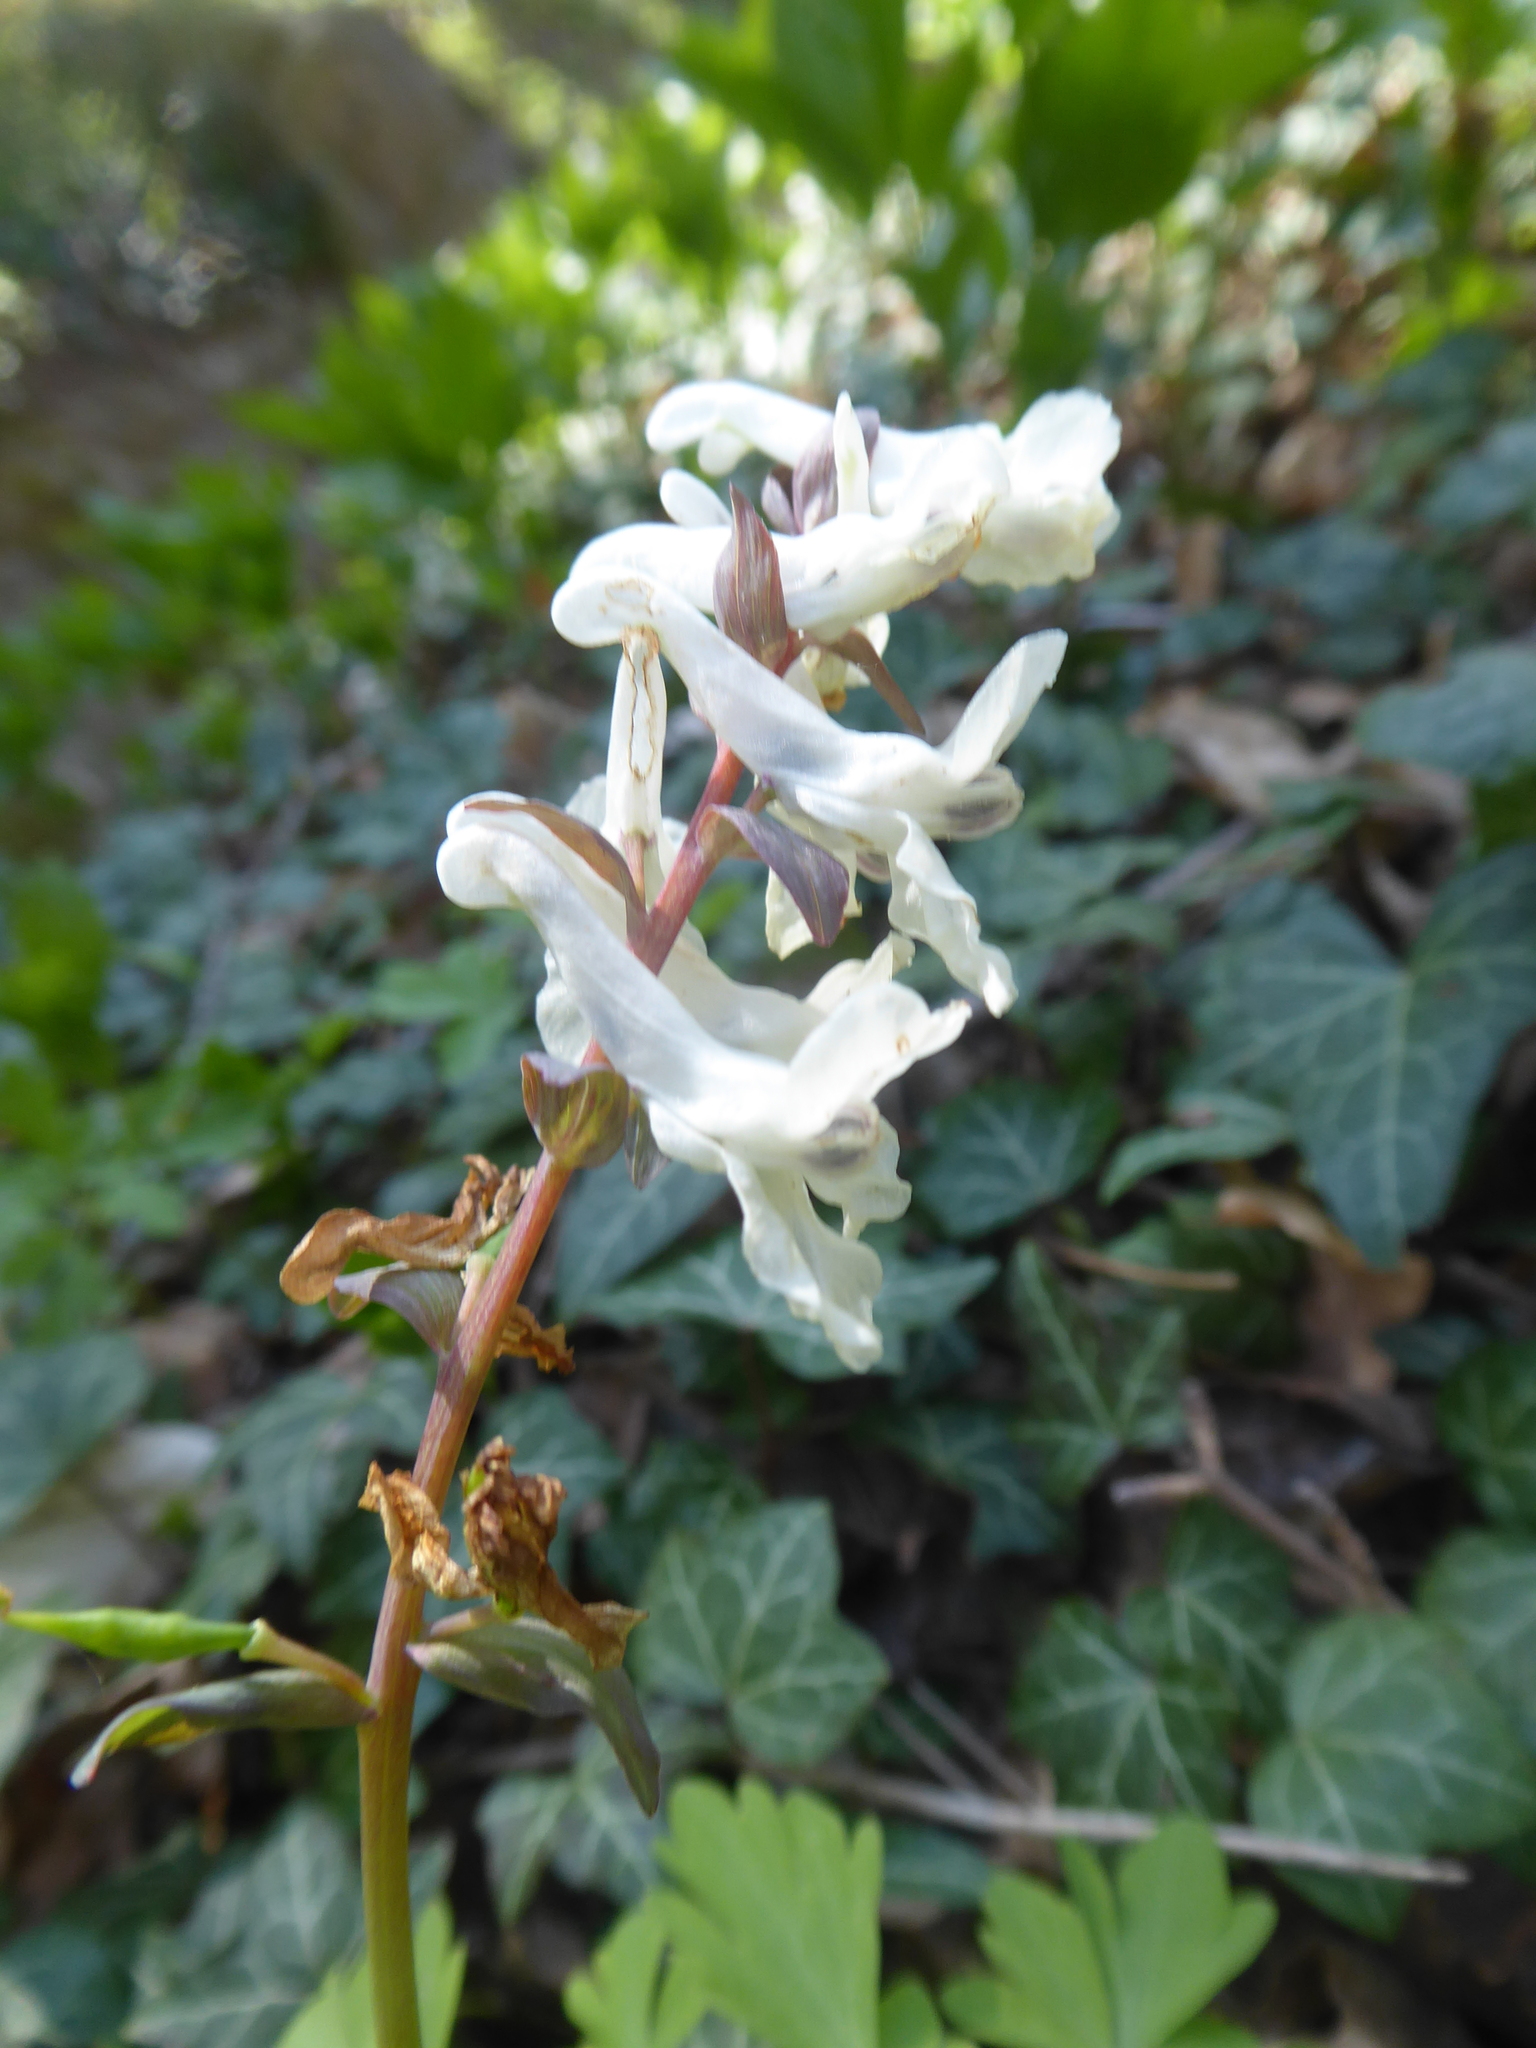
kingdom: Plantae
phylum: Tracheophyta
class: Magnoliopsida
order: Ranunculales
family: Papaveraceae
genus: Corydalis
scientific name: Corydalis cava
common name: Hollowroot
